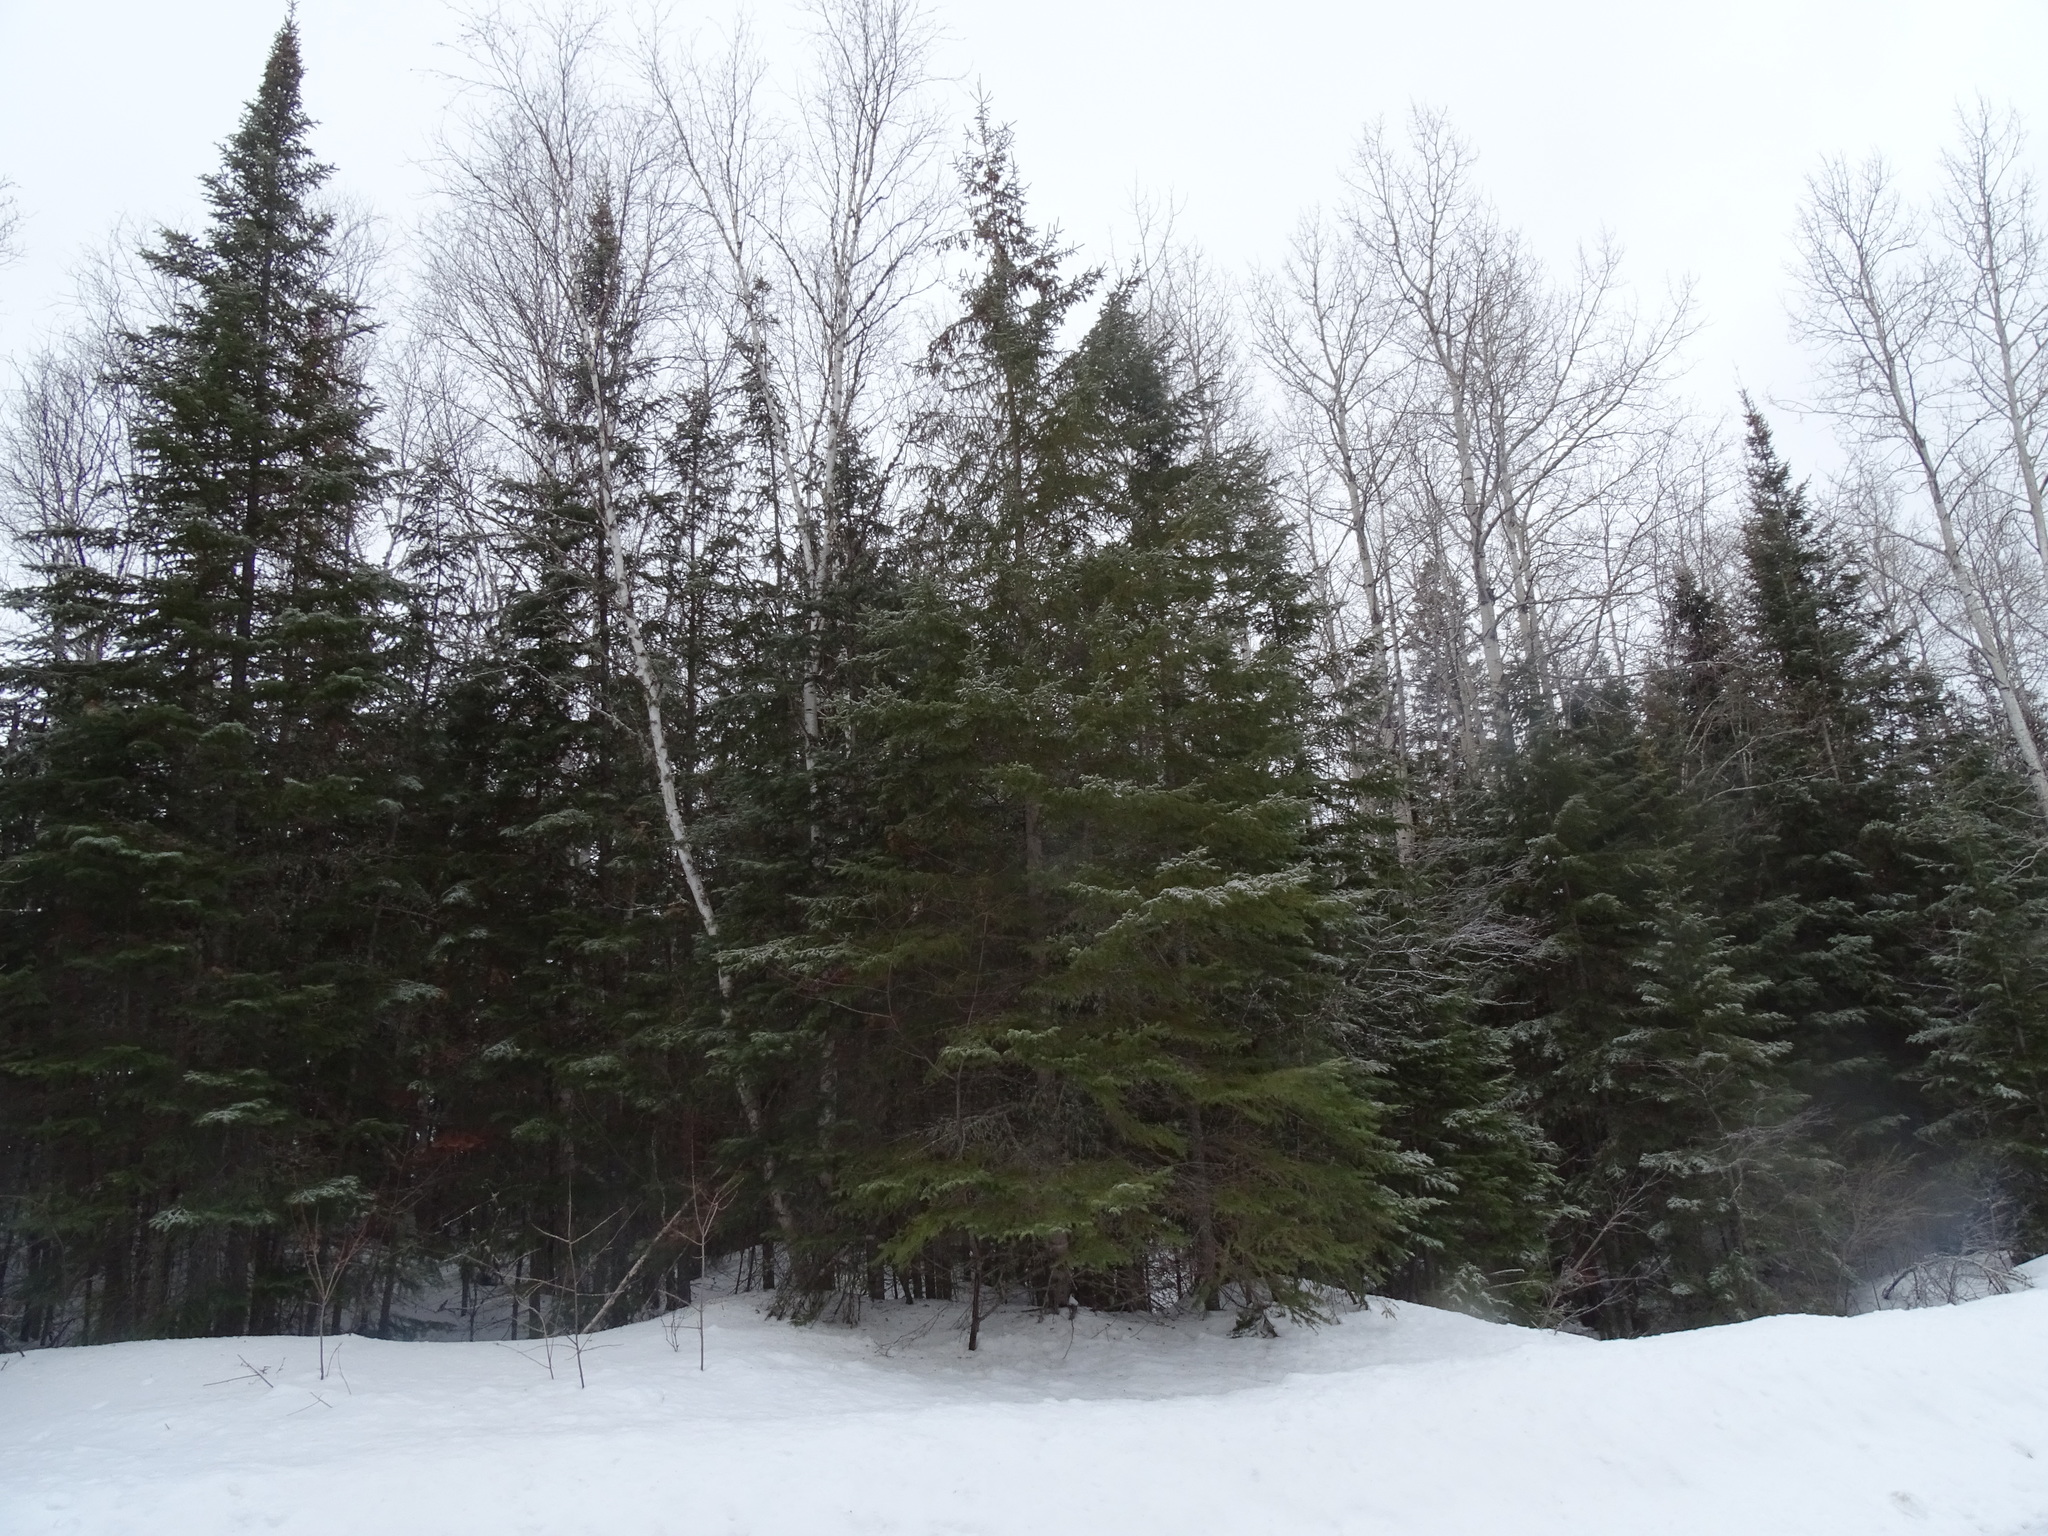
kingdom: Plantae
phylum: Tracheophyta
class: Pinopsida
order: Pinales
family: Pinaceae
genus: Picea
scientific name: Picea glauca
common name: White spruce
